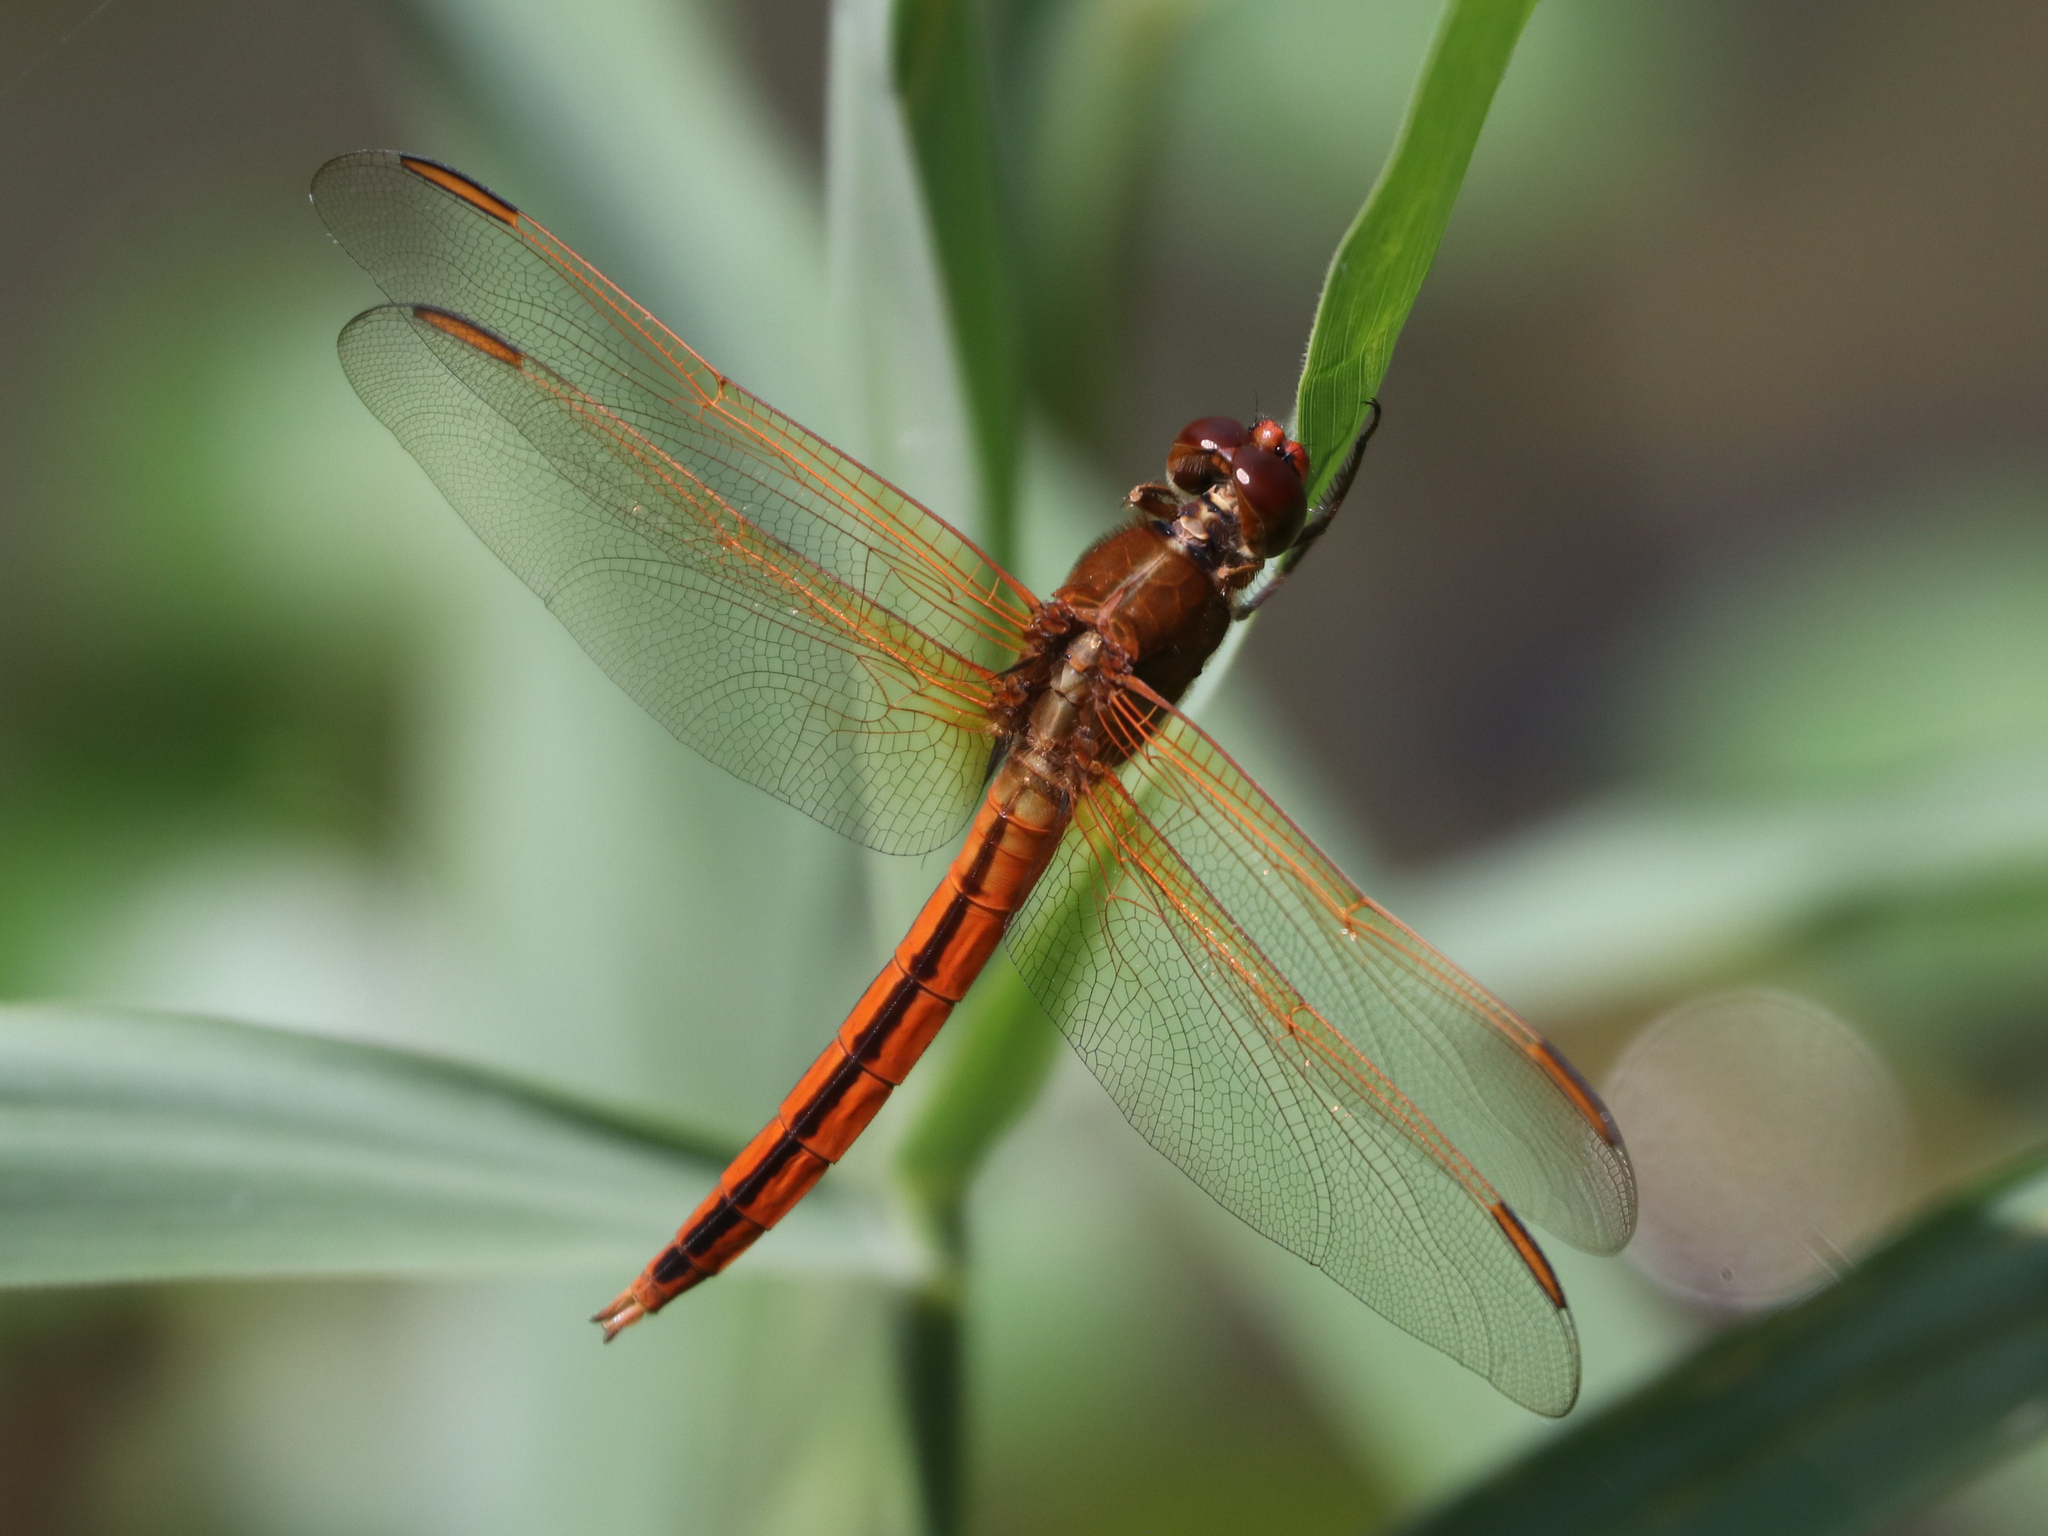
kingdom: Animalia
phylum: Arthropoda
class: Insecta
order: Odonata
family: Libellulidae
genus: Libellula
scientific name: Libellula needhami
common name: Needham's skimmer
